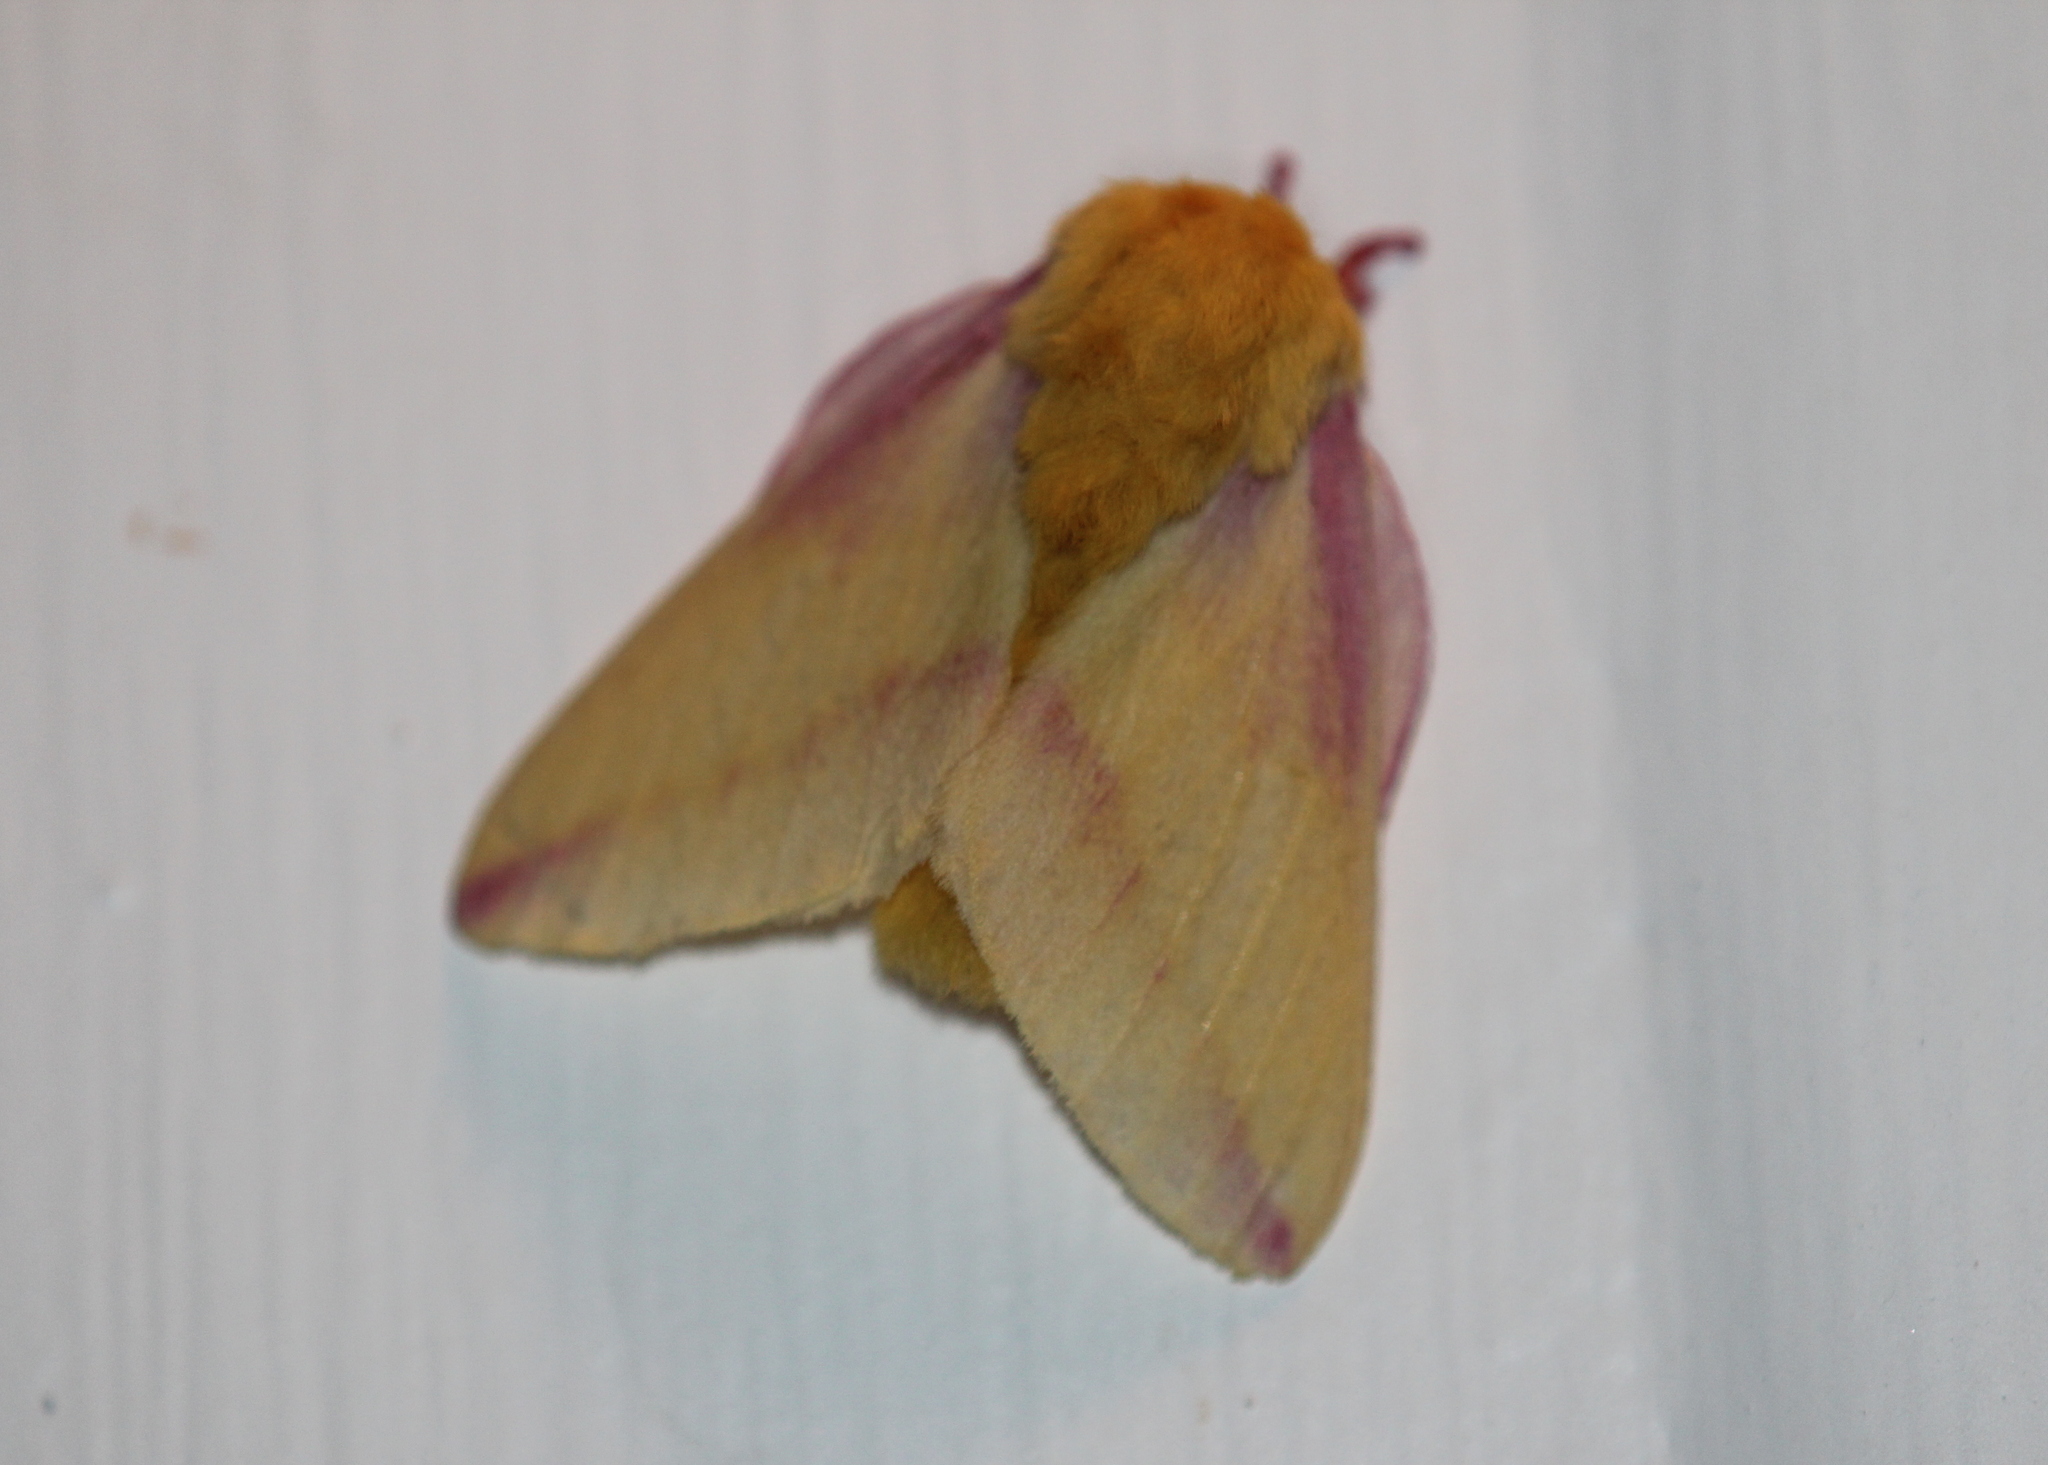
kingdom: Animalia
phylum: Arthropoda
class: Insecta
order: Lepidoptera
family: Saturniidae
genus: Dryocampa
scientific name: Dryocampa rubicunda
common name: Rosy maple moth
